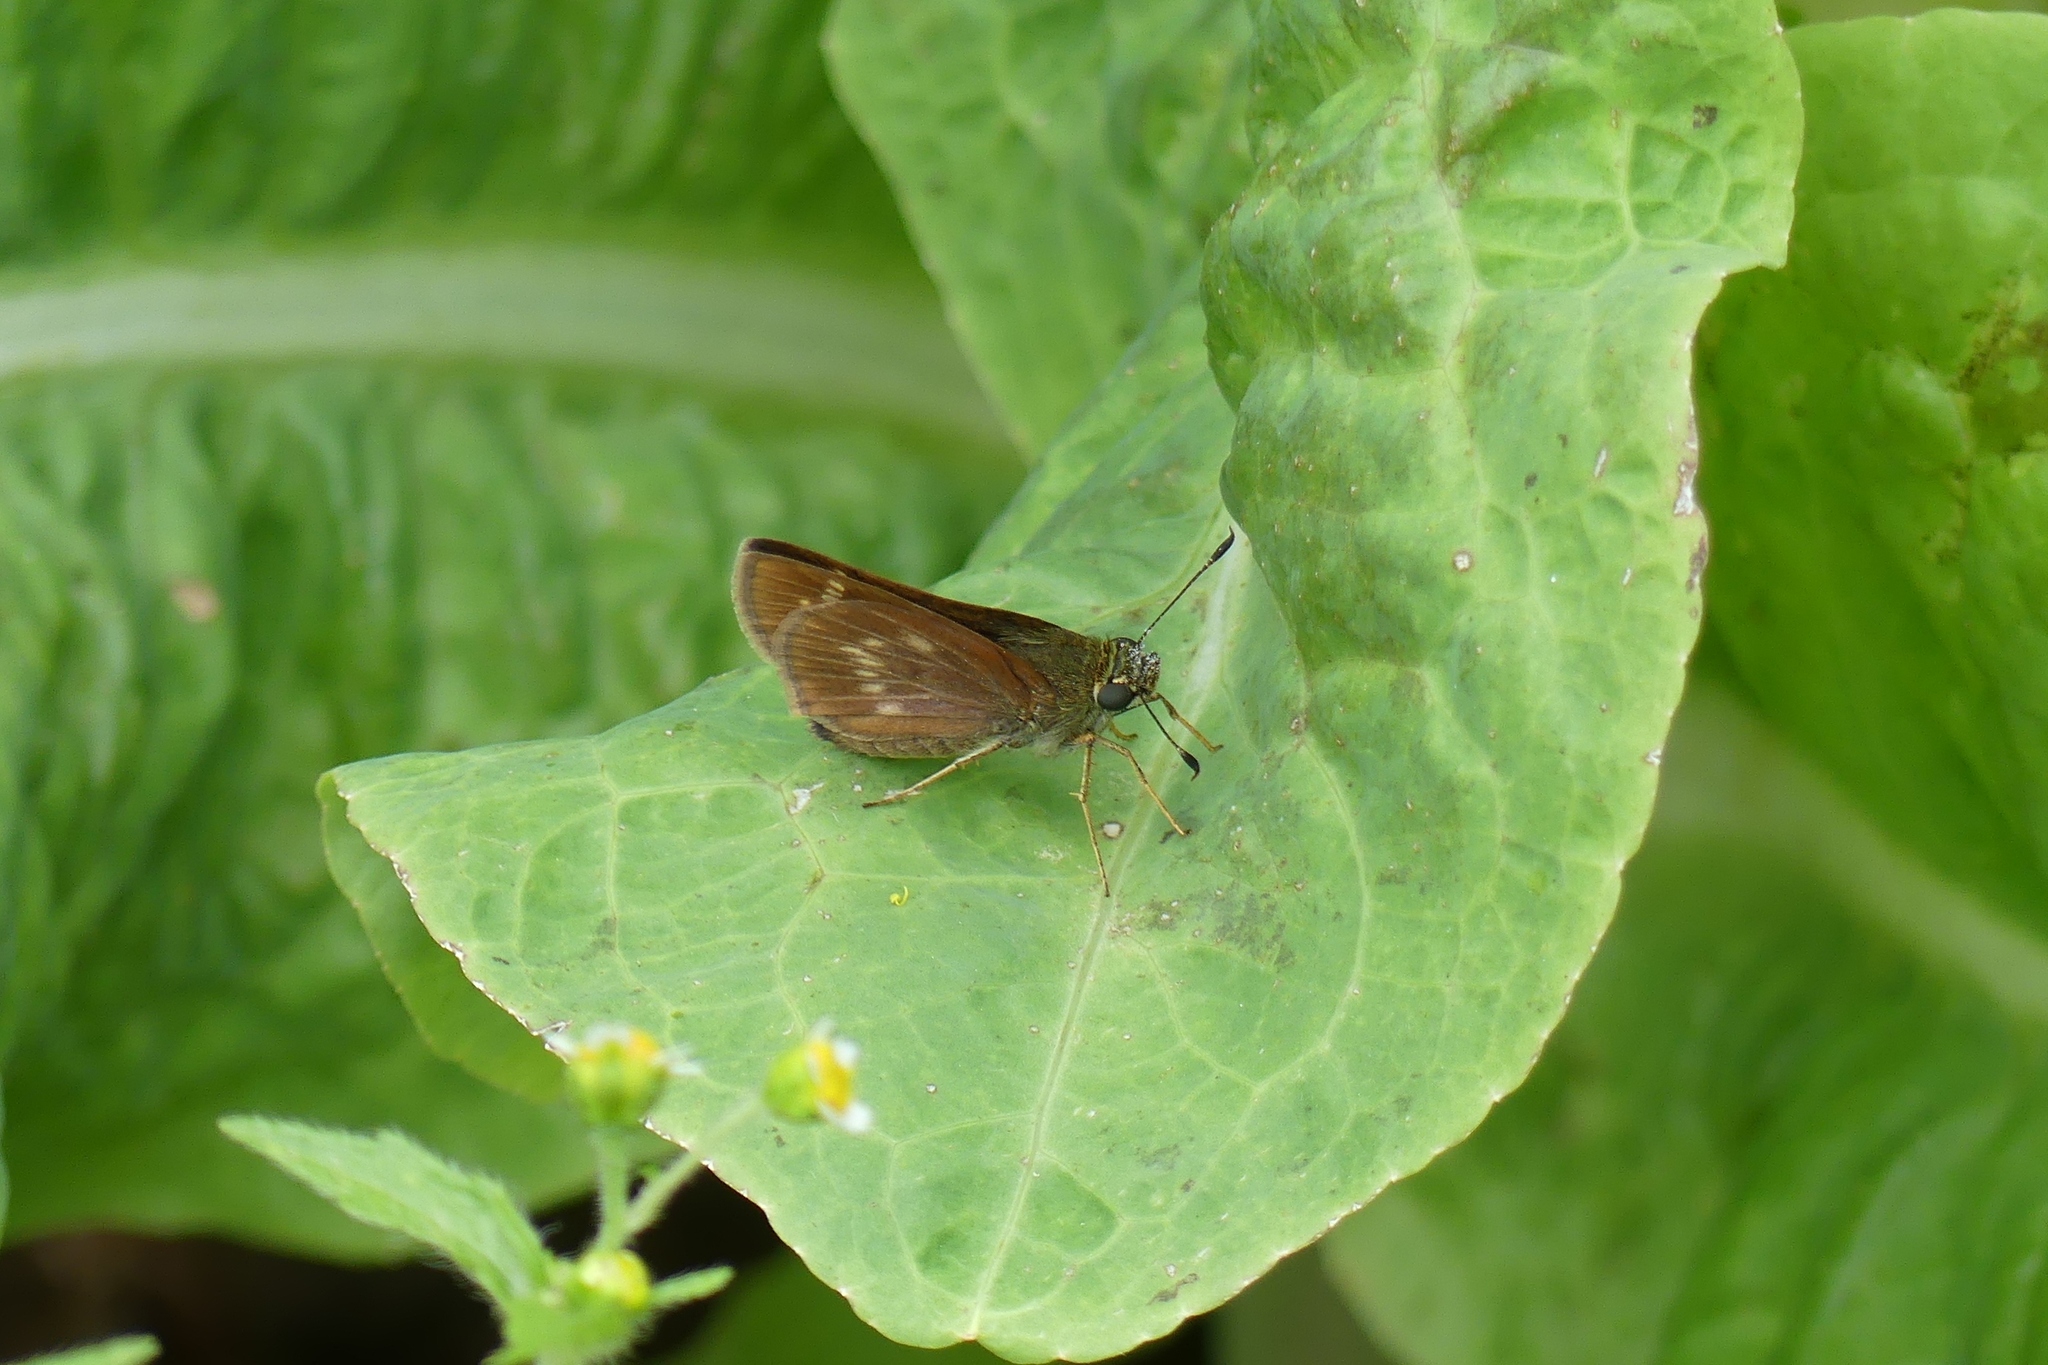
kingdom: Animalia
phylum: Arthropoda
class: Insecta
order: Lepidoptera
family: Hesperiidae
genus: Vernia
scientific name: Vernia verna
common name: Little glassywing
